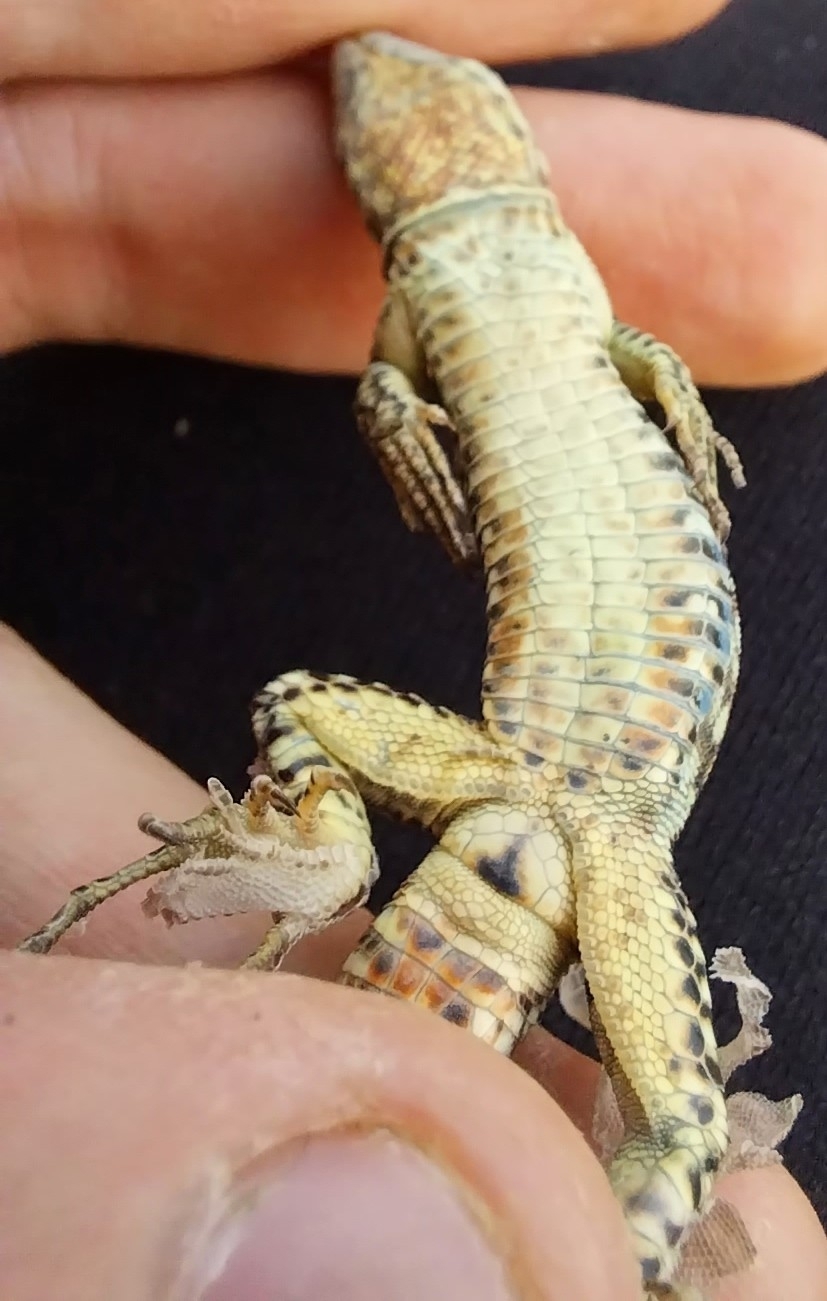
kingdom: Animalia
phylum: Chordata
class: Squamata
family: Lacertidae
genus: Podarcis
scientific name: Podarcis muralis
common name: Common wall lizard
